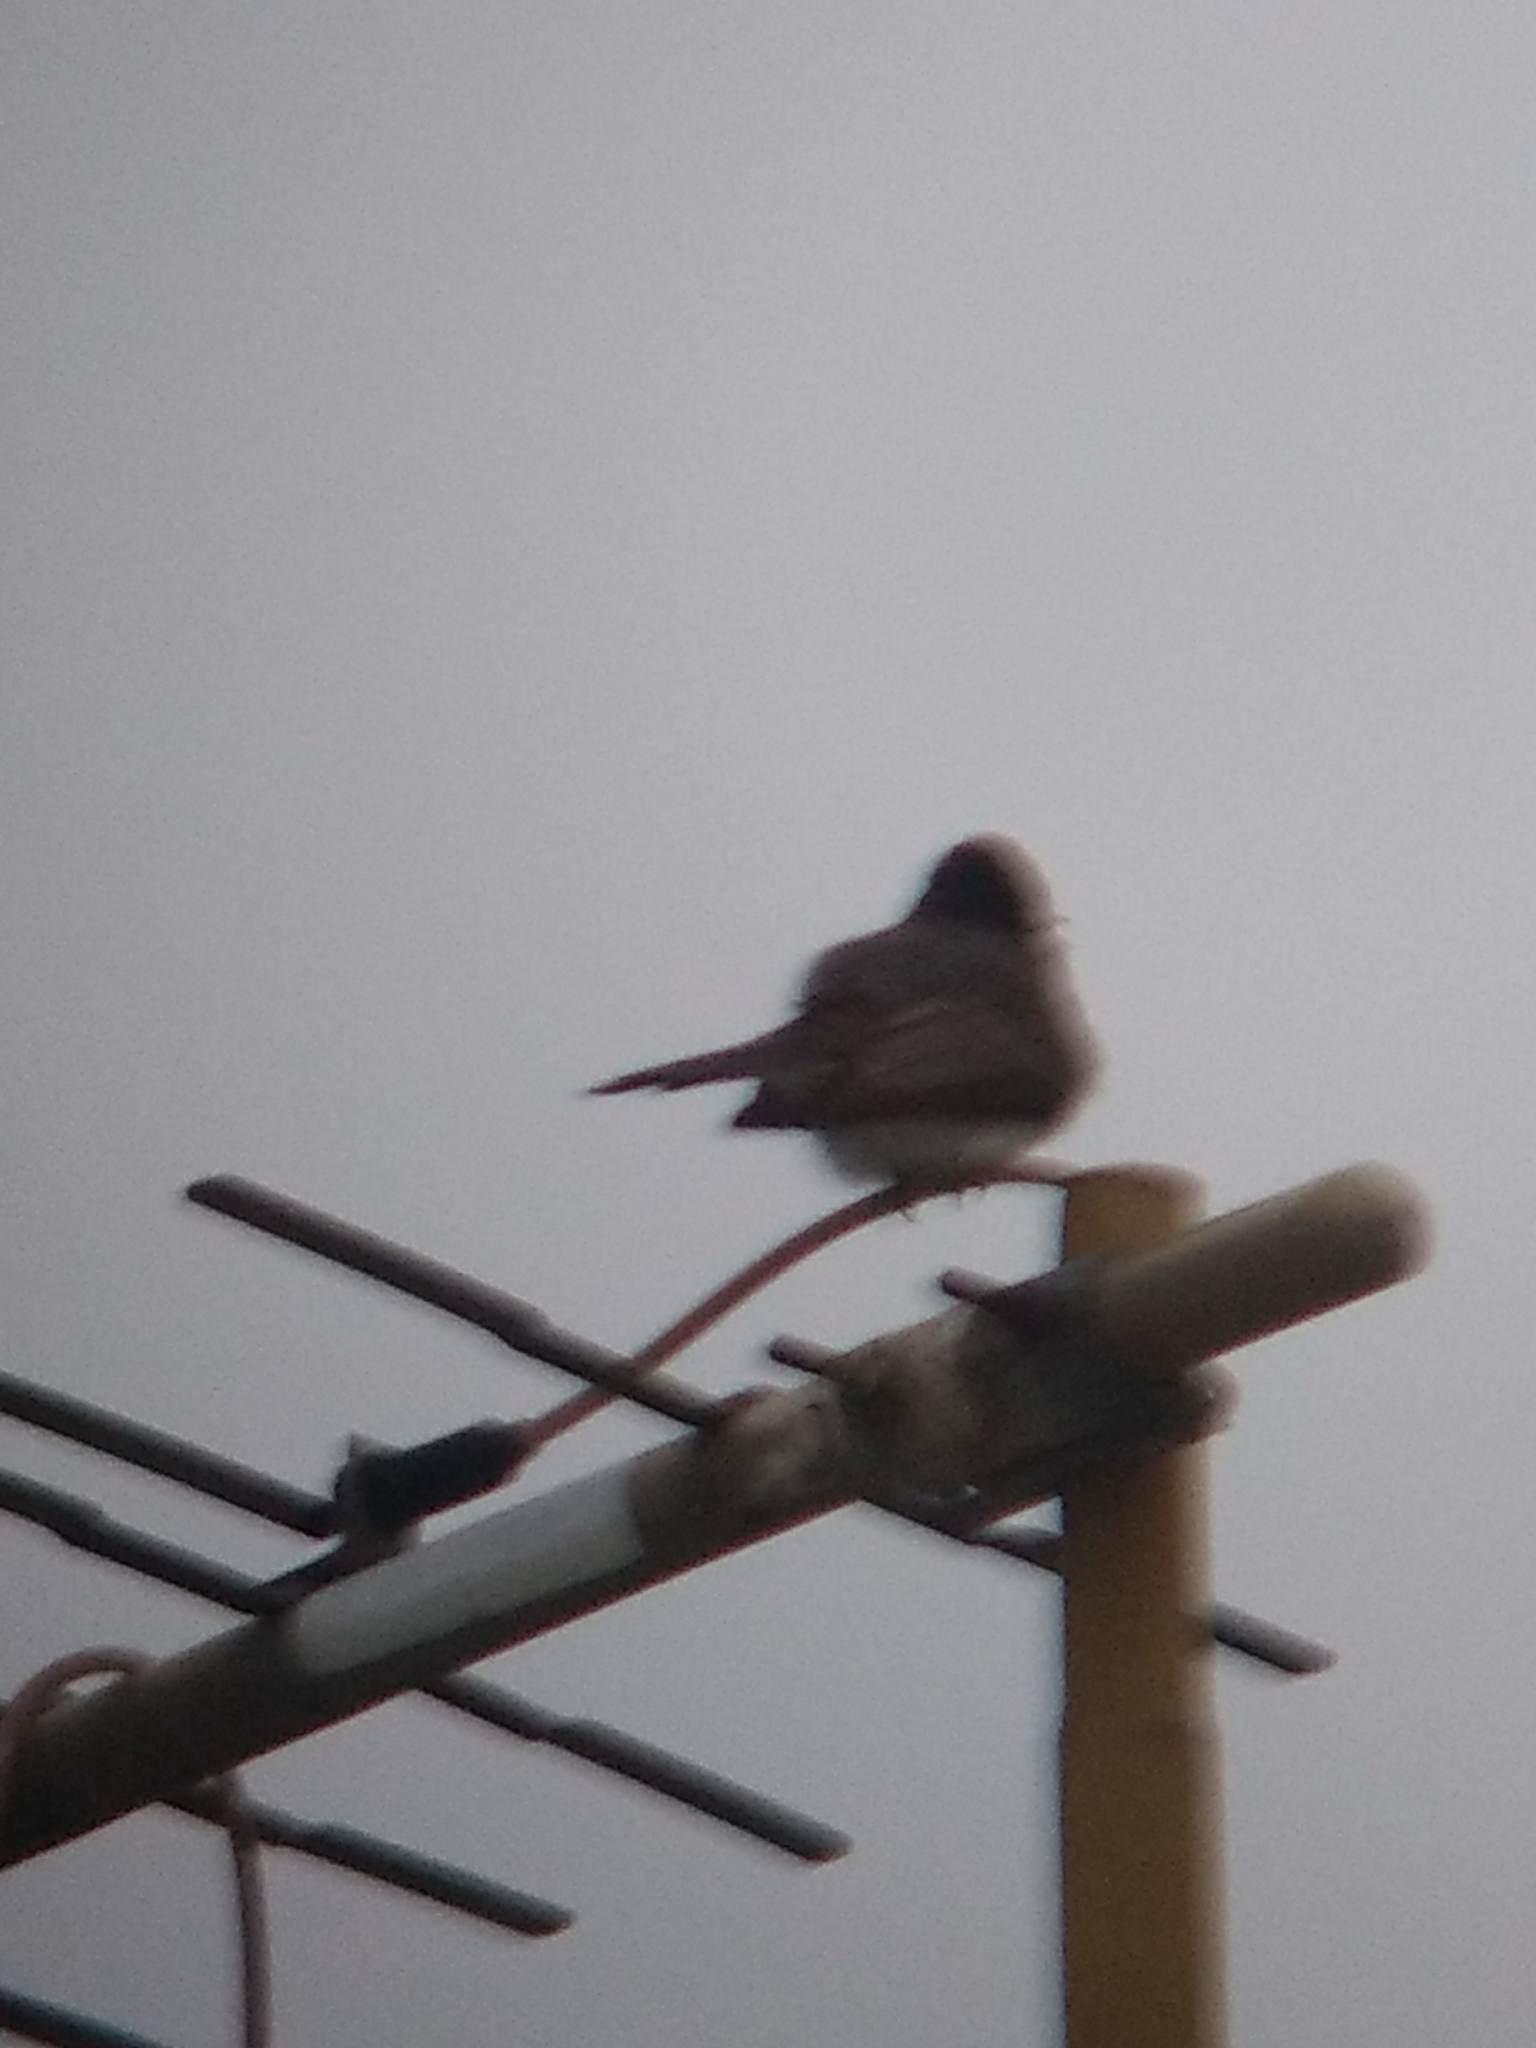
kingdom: Animalia
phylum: Chordata
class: Aves
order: Passeriformes
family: Tyrannidae
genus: Sayornis
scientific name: Sayornis nigricans
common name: Black phoebe
